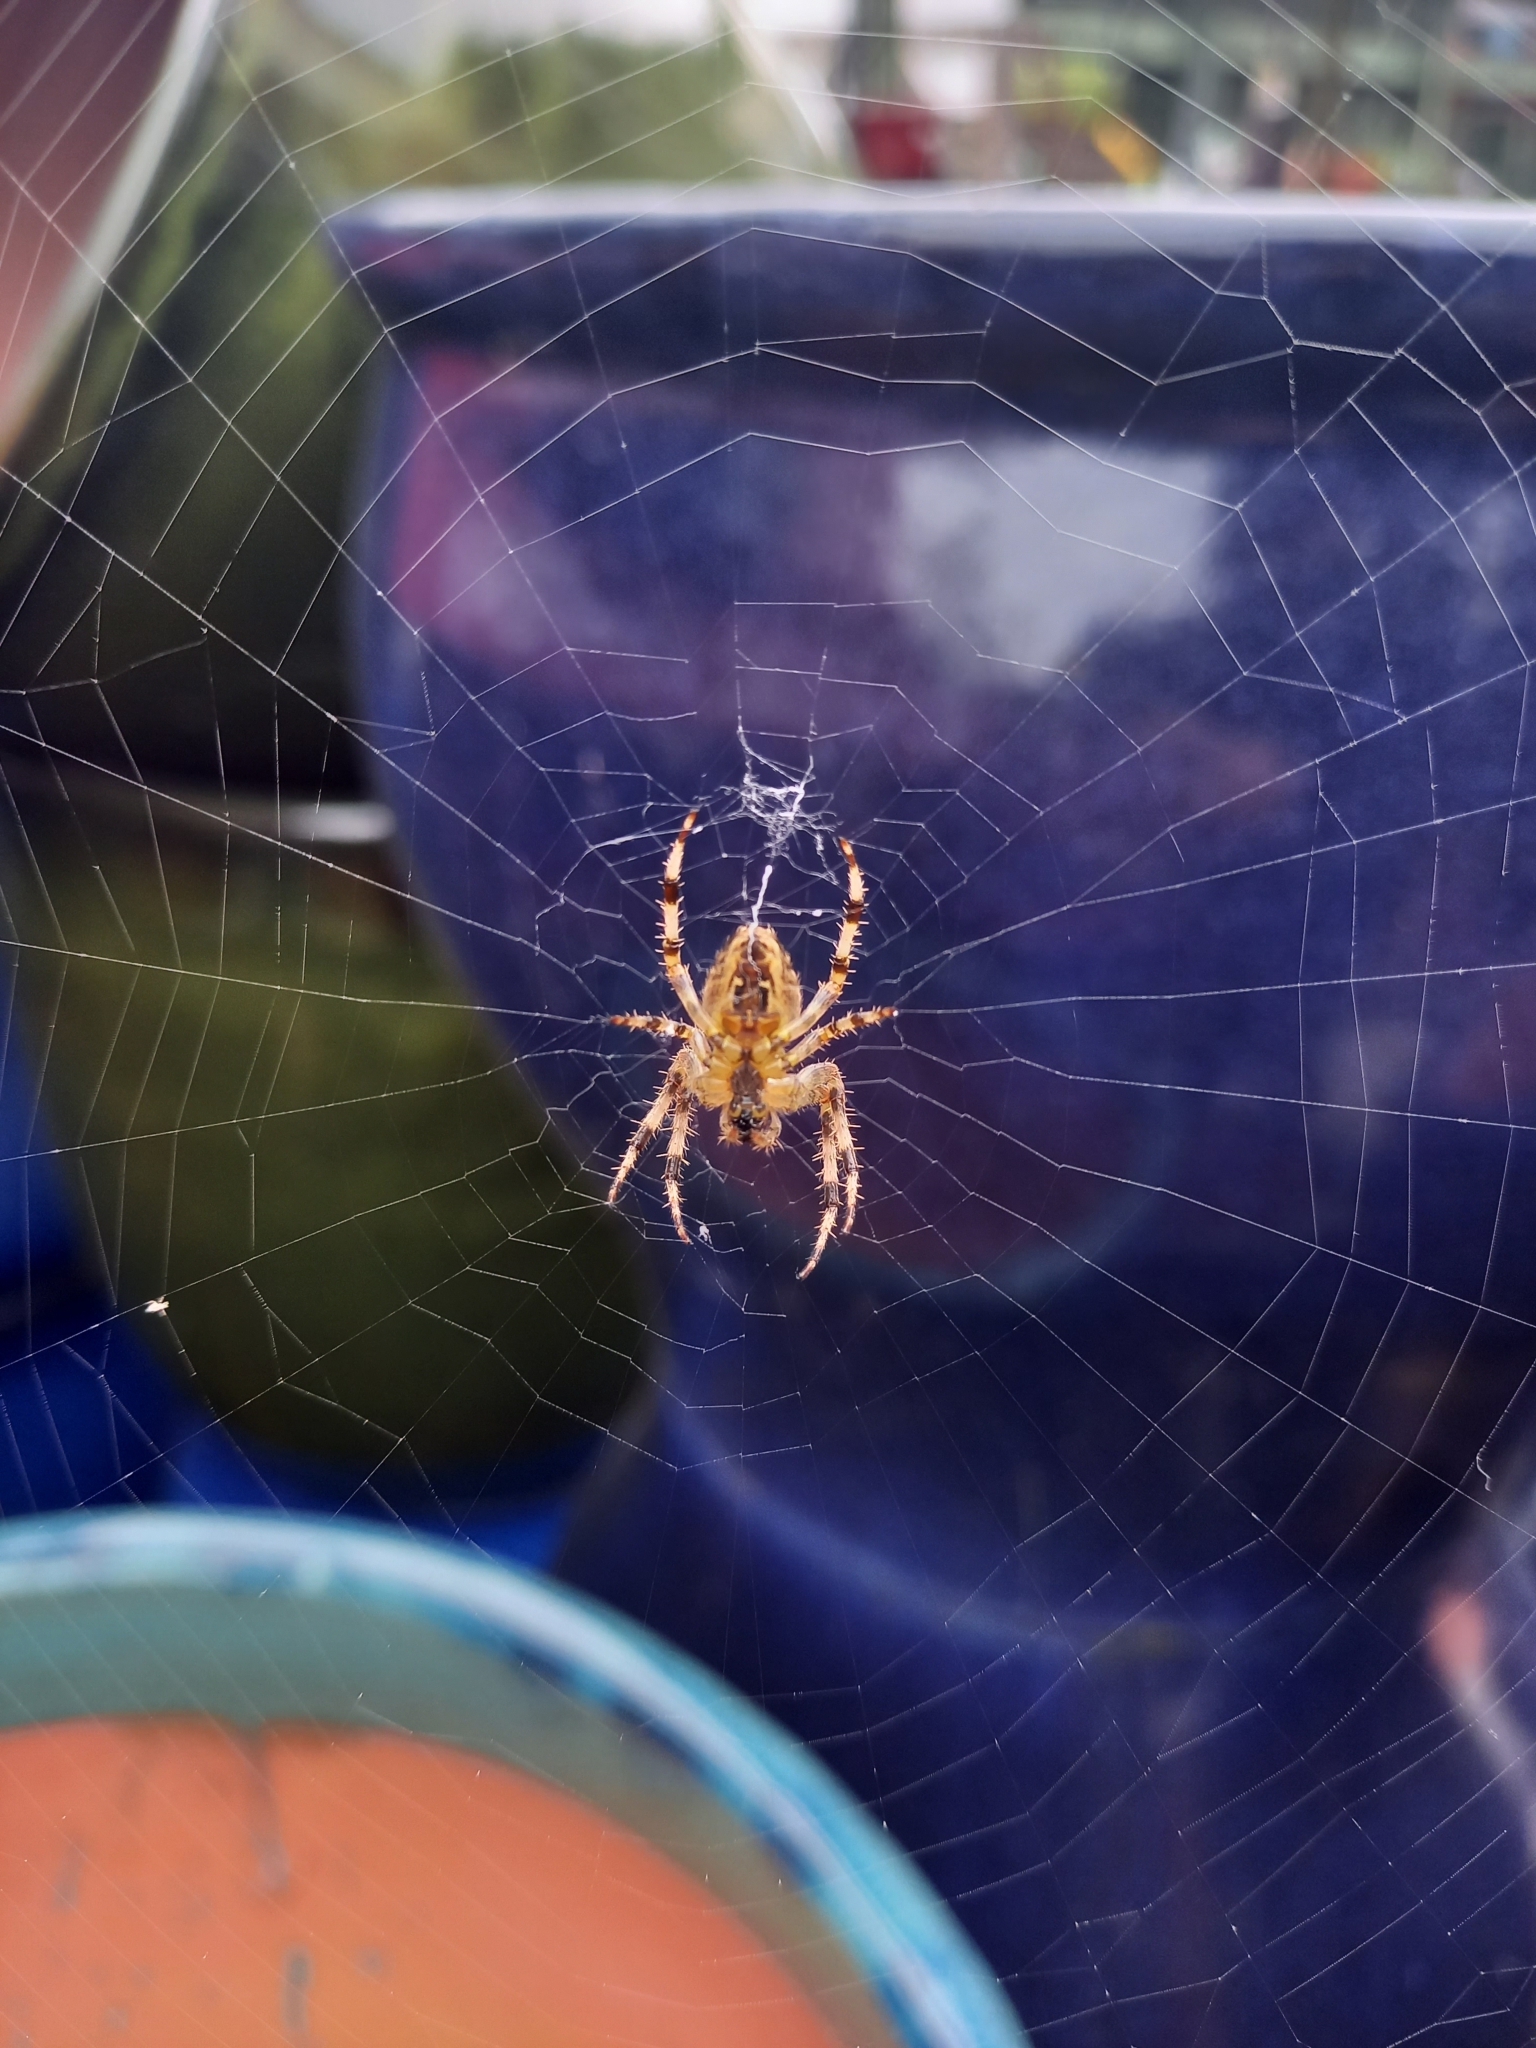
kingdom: Animalia
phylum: Arthropoda
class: Arachnida
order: Araneae
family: Araneidae
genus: Araneus
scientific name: Araneus diadematus
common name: Cross orbweaver
